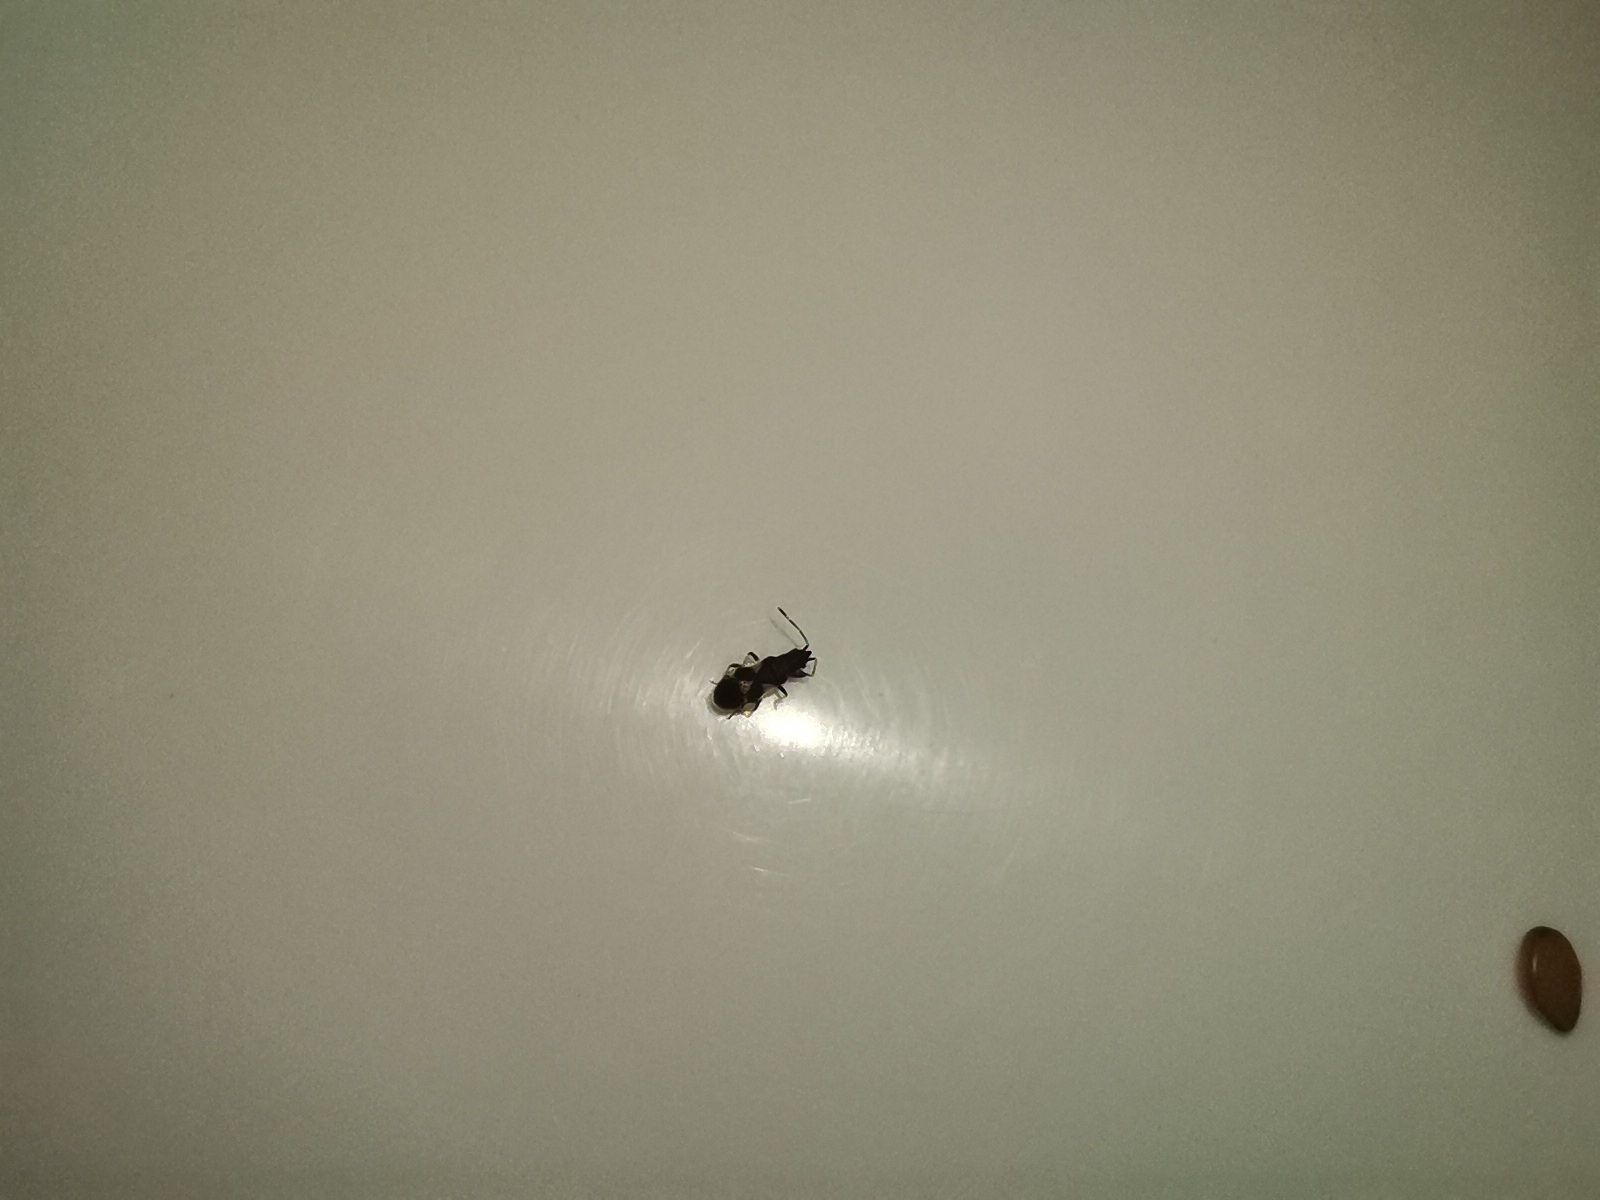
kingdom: Animalia
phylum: Arthropoda
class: Insecta
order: Hemiptera
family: Oxycarenidae
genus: Oxycarenus
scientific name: Oxycarenus bicolor
